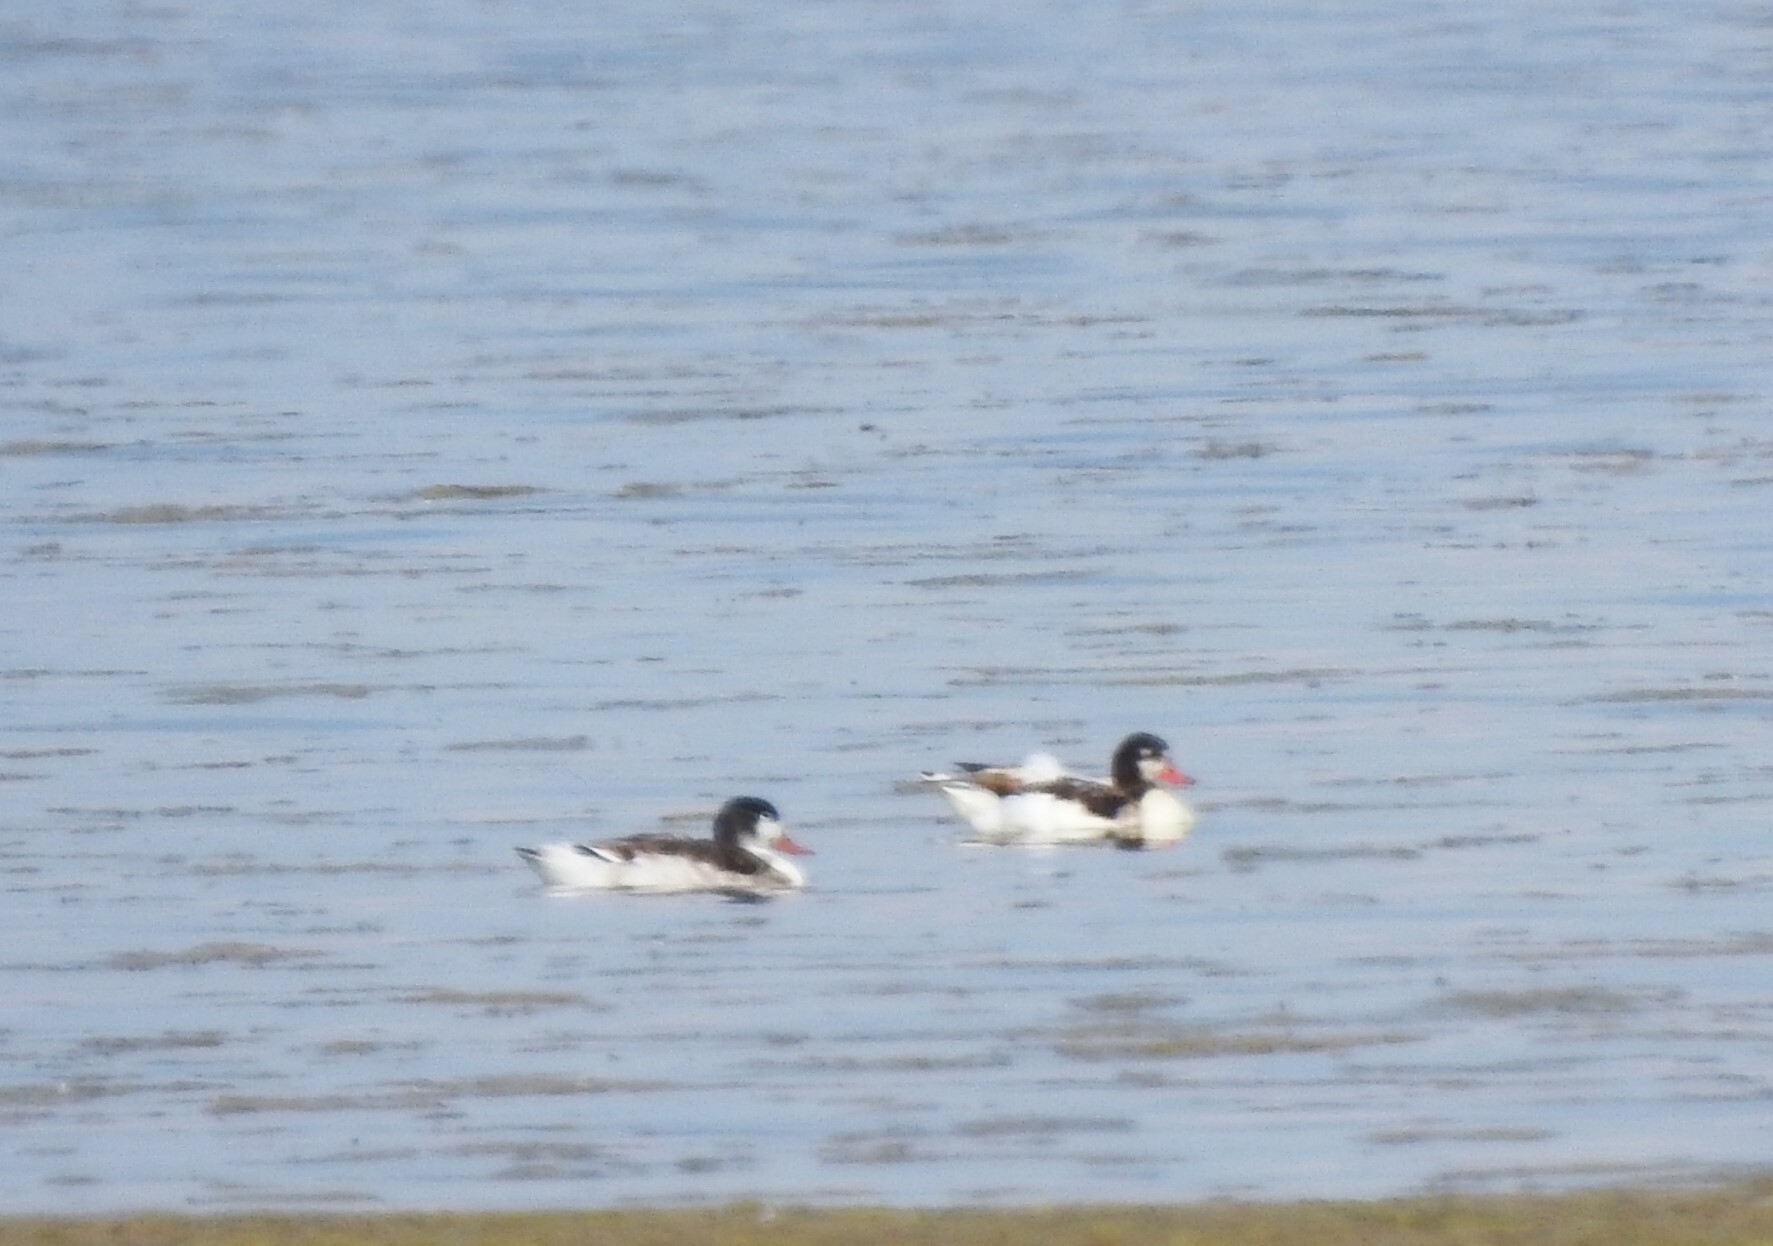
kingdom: Animalia
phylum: Chordata
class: Aves
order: Anseriformes
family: Anatidae
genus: Tadorna
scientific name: Tadorna tadorna
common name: Common shelduck
